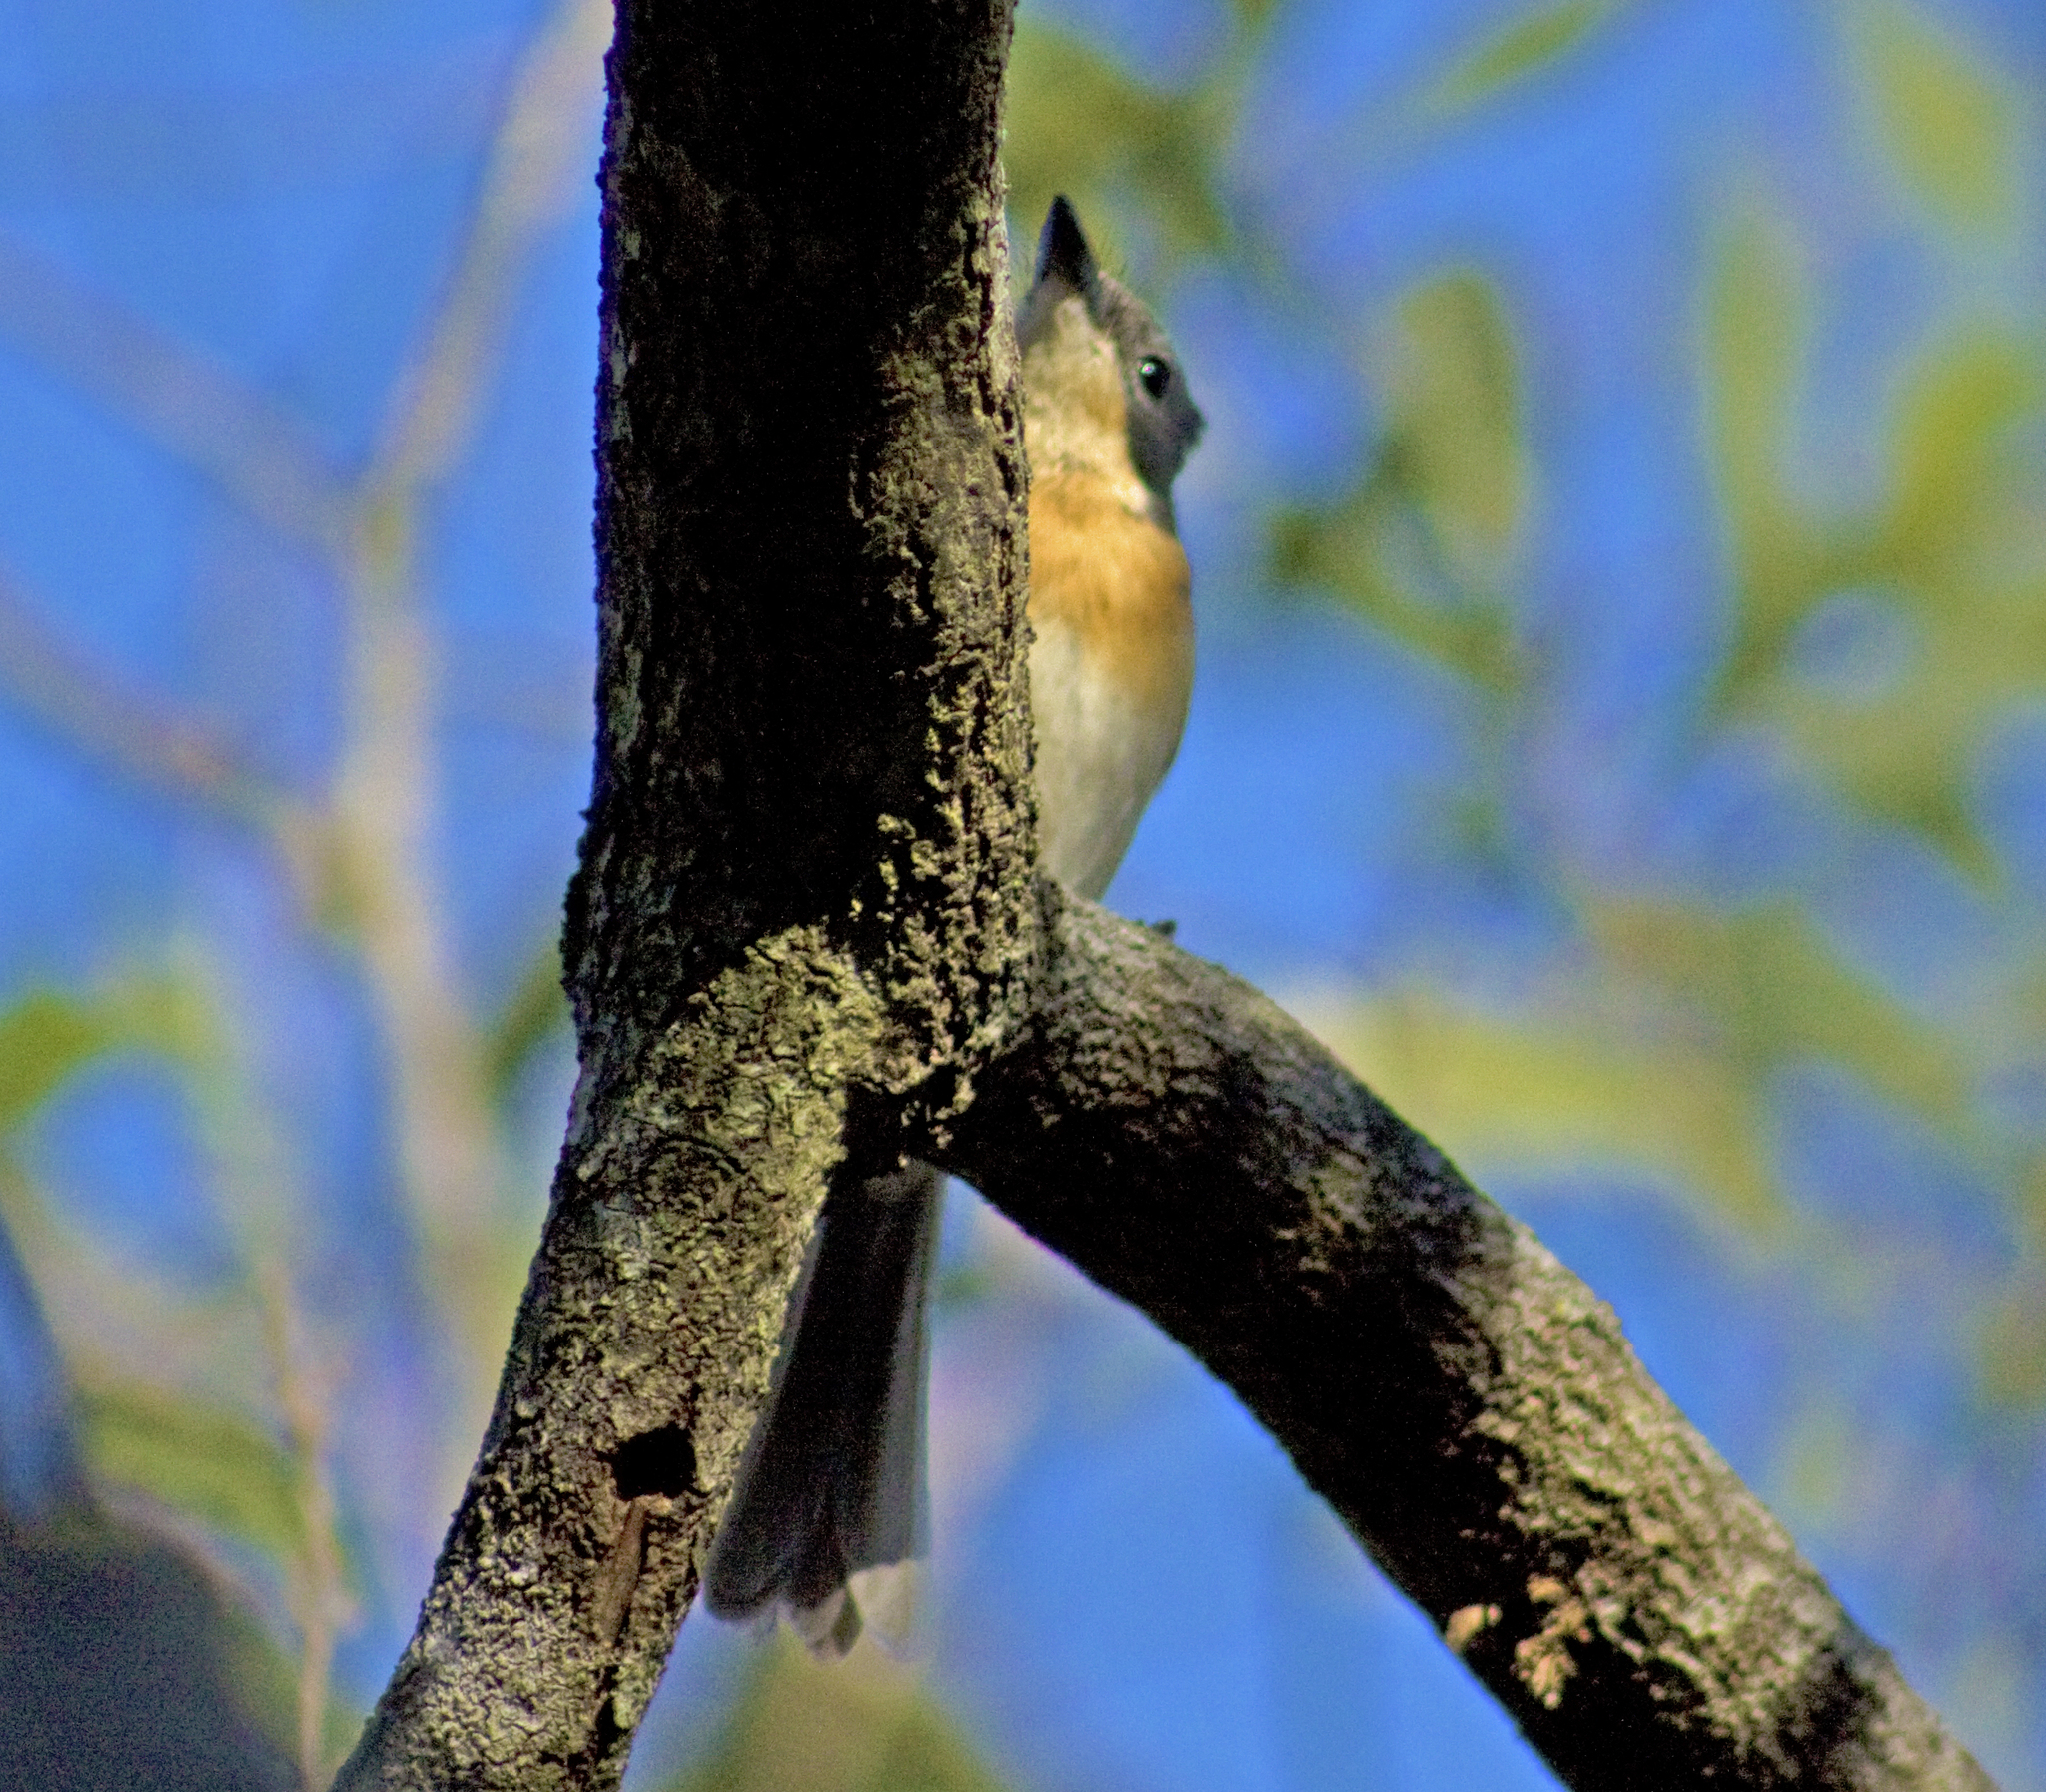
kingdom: Animalia
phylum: Chordata
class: Aves
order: Passeriformes
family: Monarchidae
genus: Myiagra
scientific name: Myiagra rubecula
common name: Leaden flycatcher
